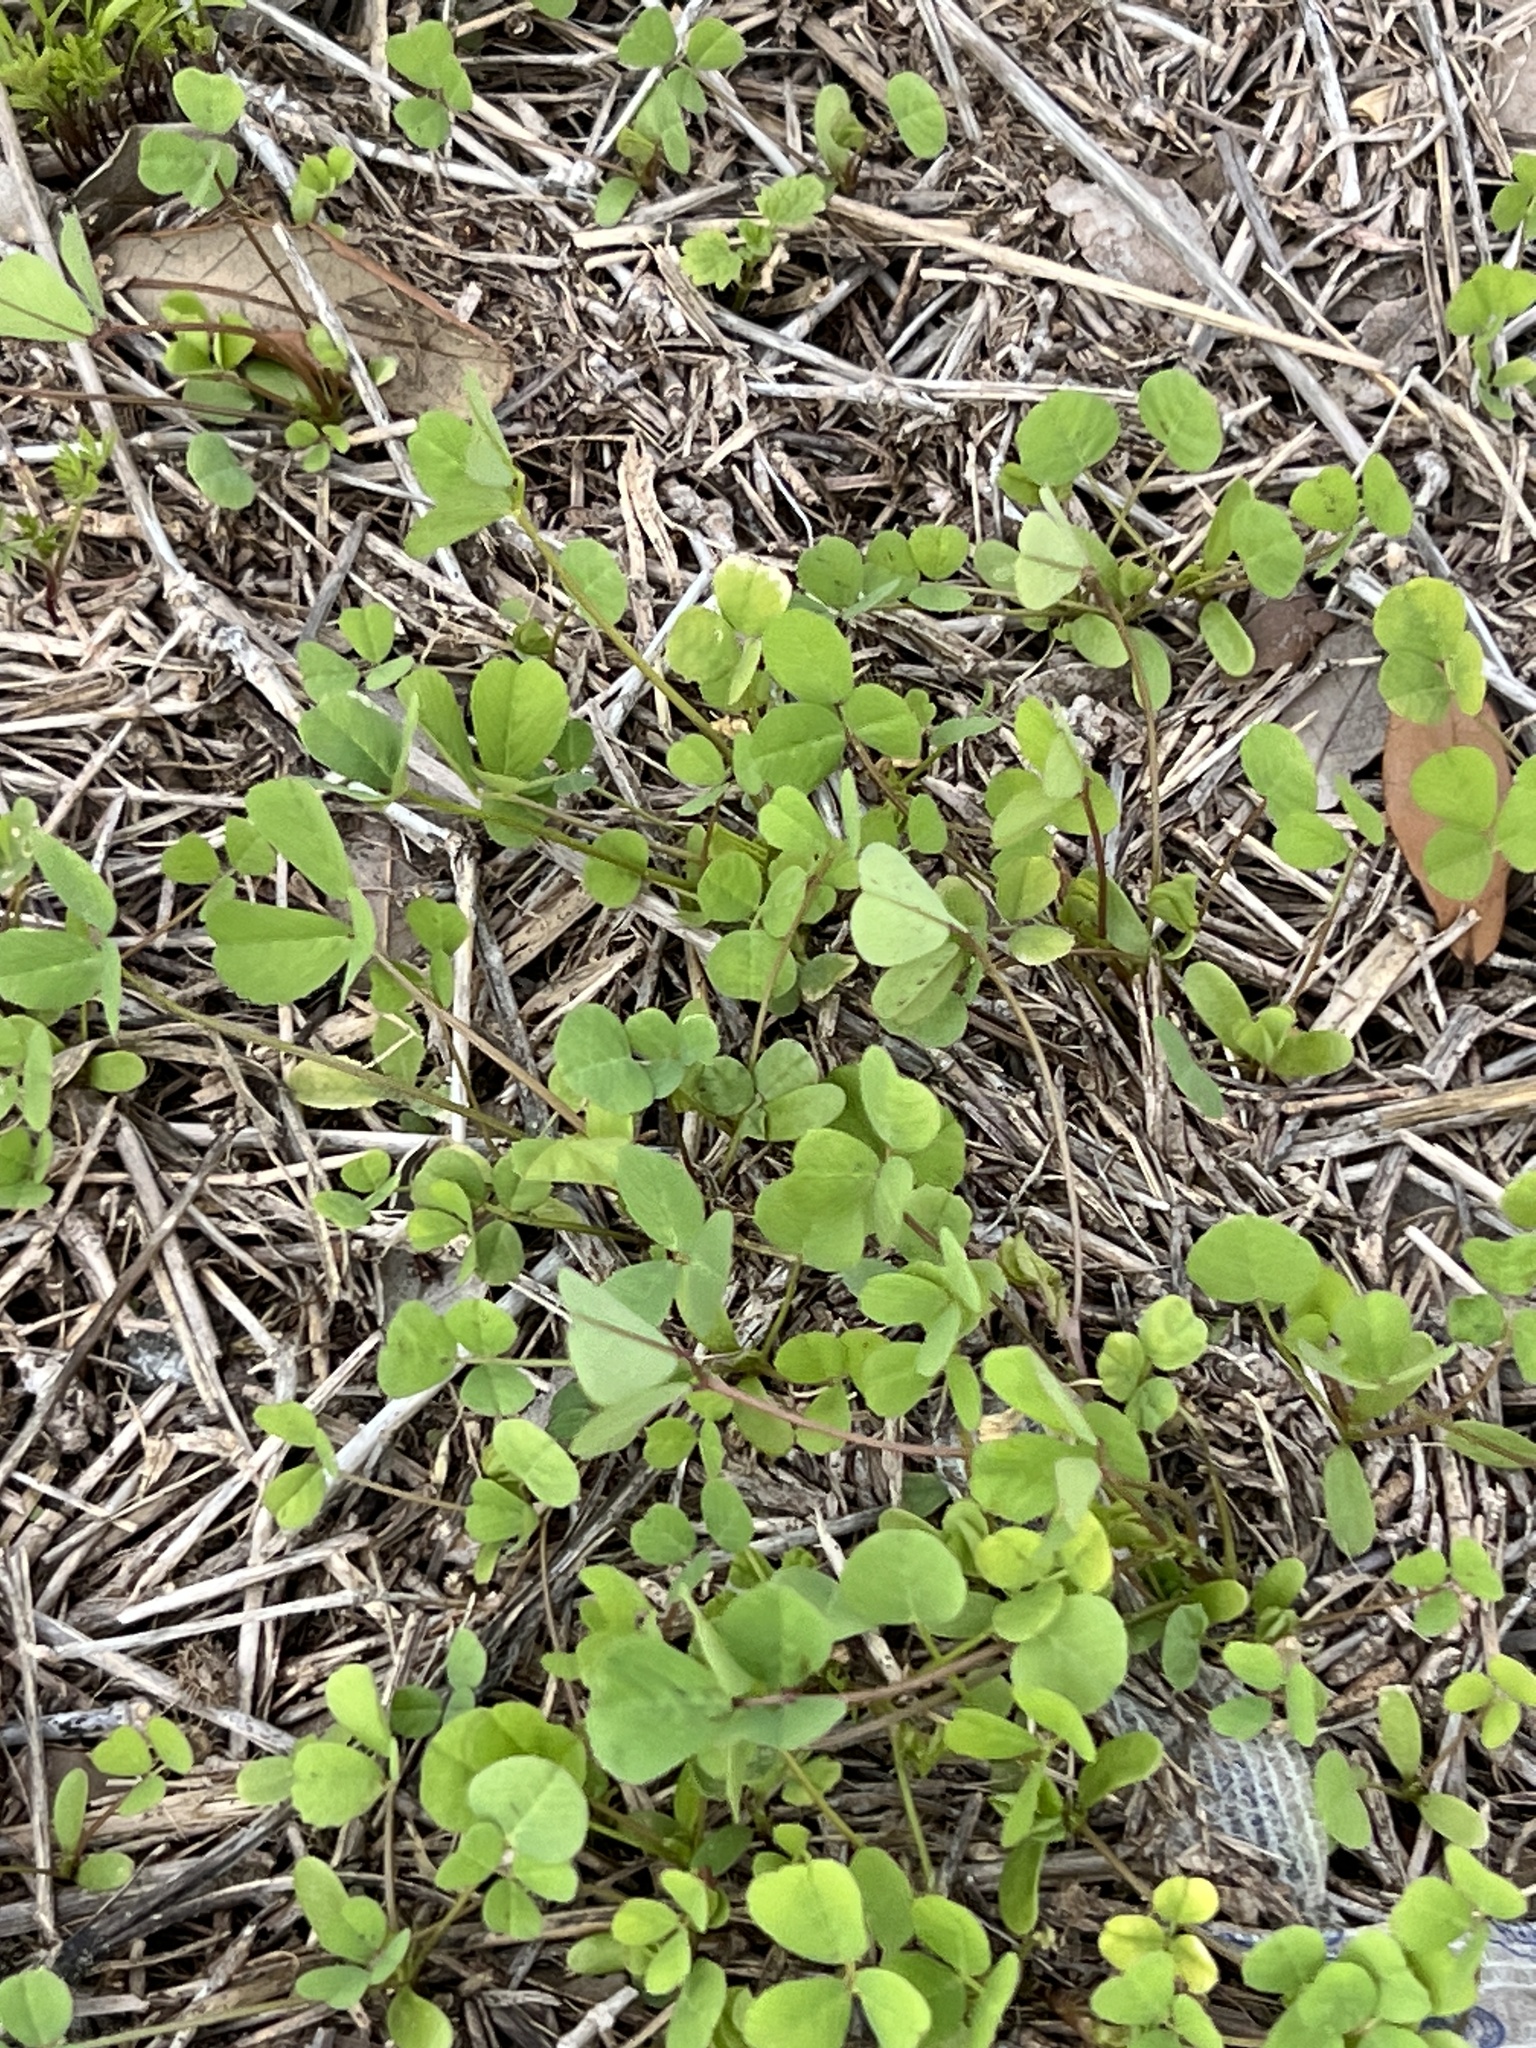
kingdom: Plantae
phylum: Tracheophyta
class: Magnoliopsida
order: Fabales
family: Fabaceae
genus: Medicago
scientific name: Medicago polymorpha
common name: Burclover
